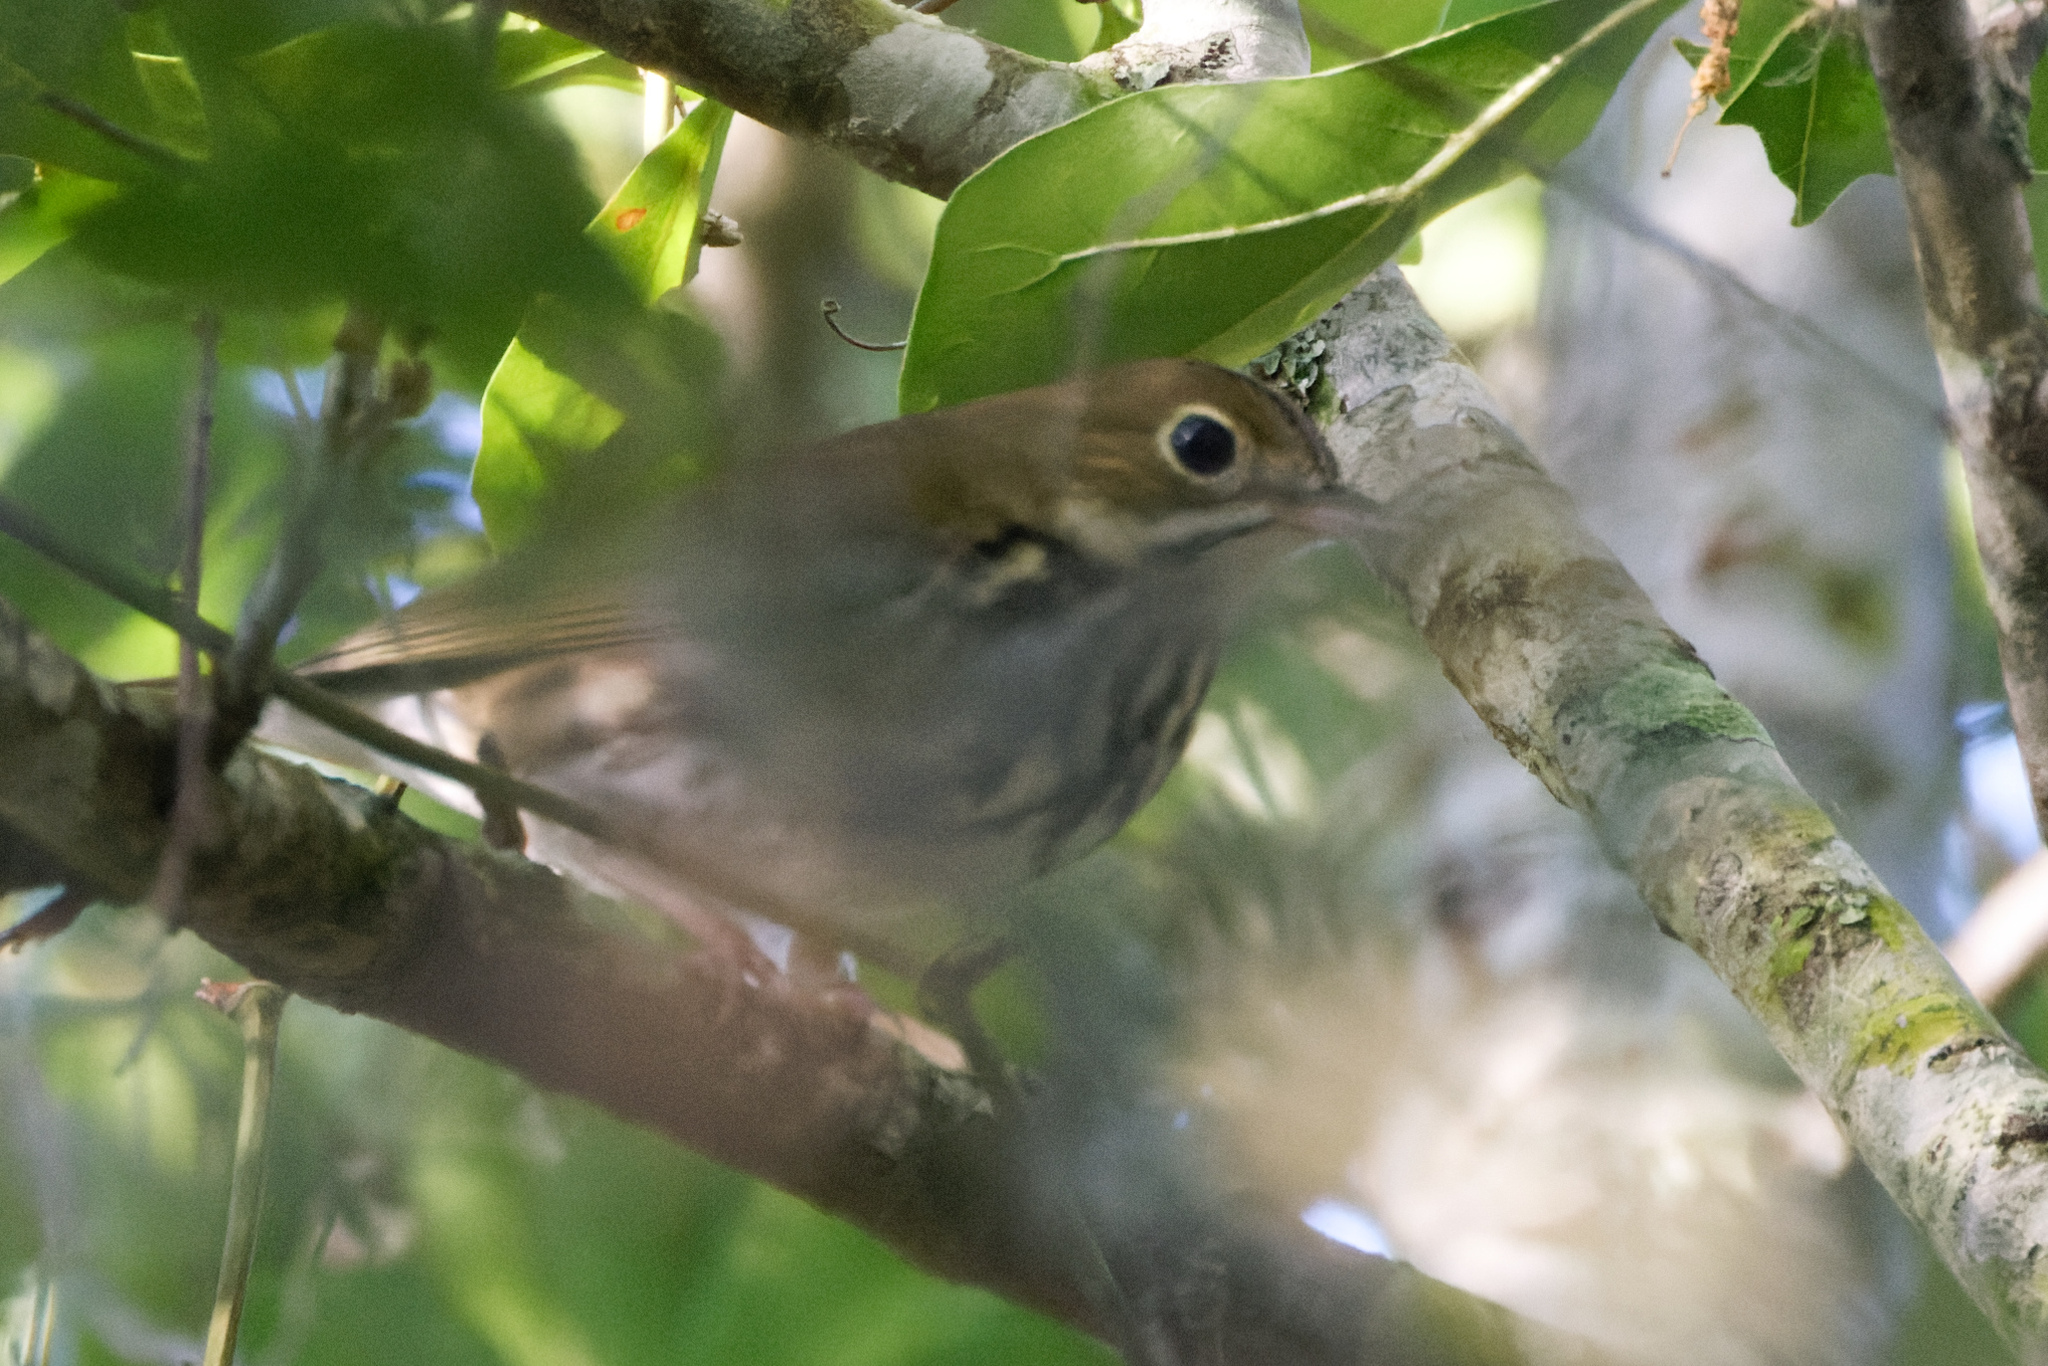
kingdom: Animalia
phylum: Chordata
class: Aves
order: Passeriformes
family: Parulidae
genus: Seiurus
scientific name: Seiurus aurocapilla
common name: Ovenbird
